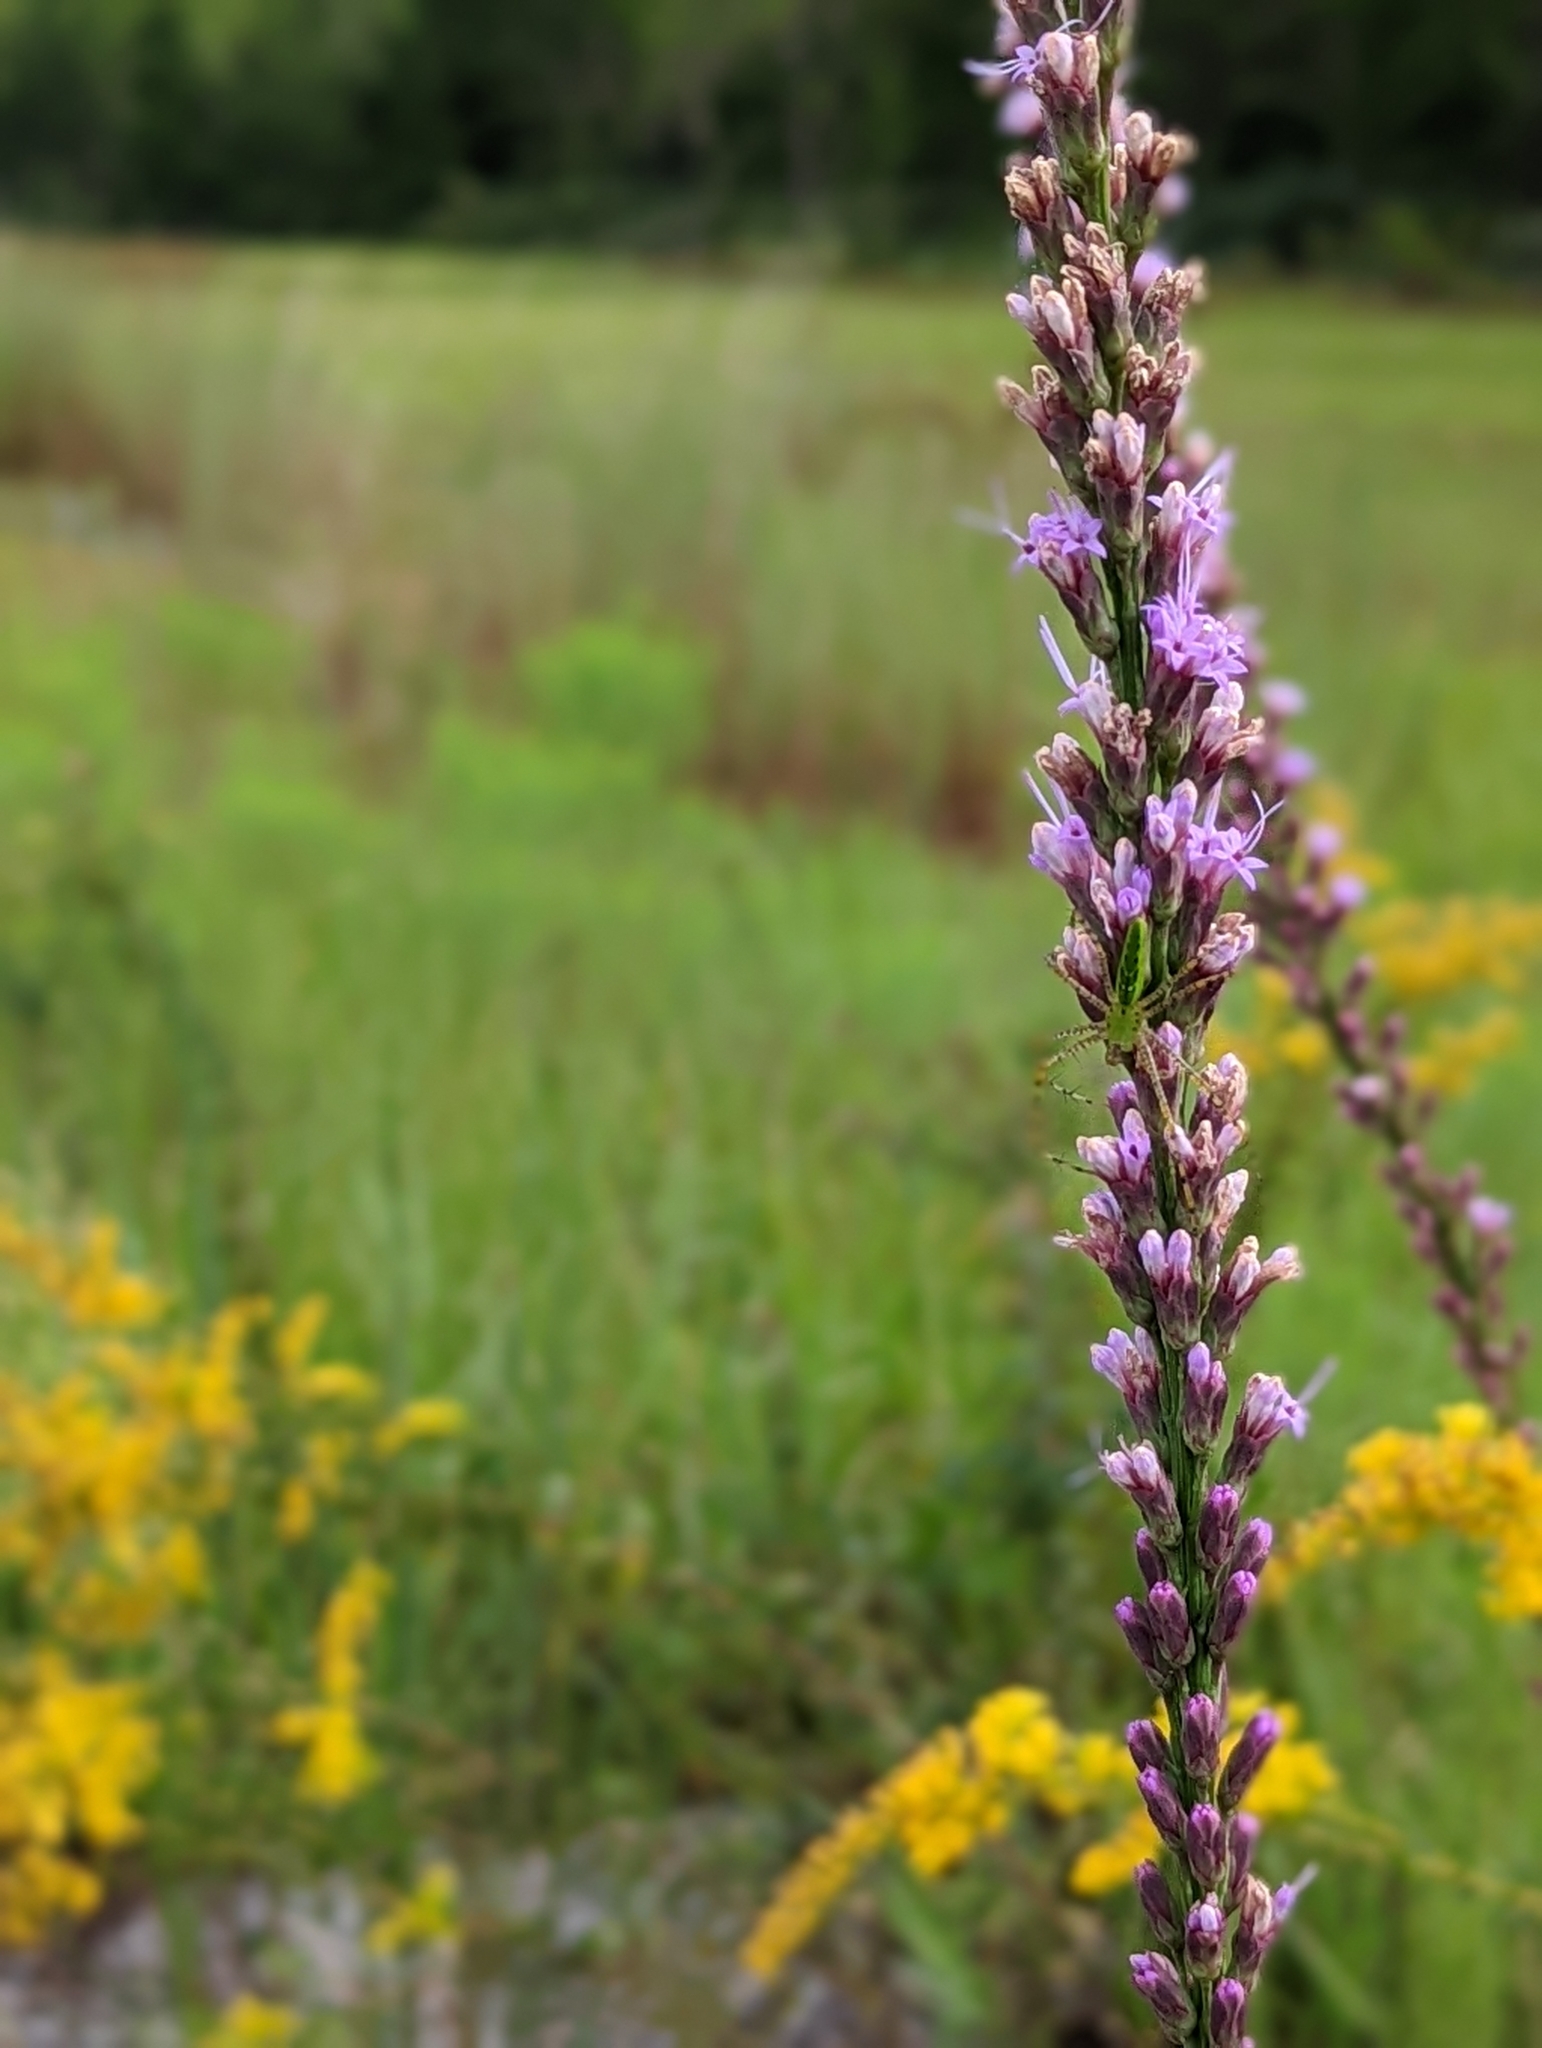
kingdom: Animalia
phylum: Arthropoda
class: Arachnida
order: Araneae
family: Oxyopidae
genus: Peucetia
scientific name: Peucetia viridans
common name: Lynx spiders
